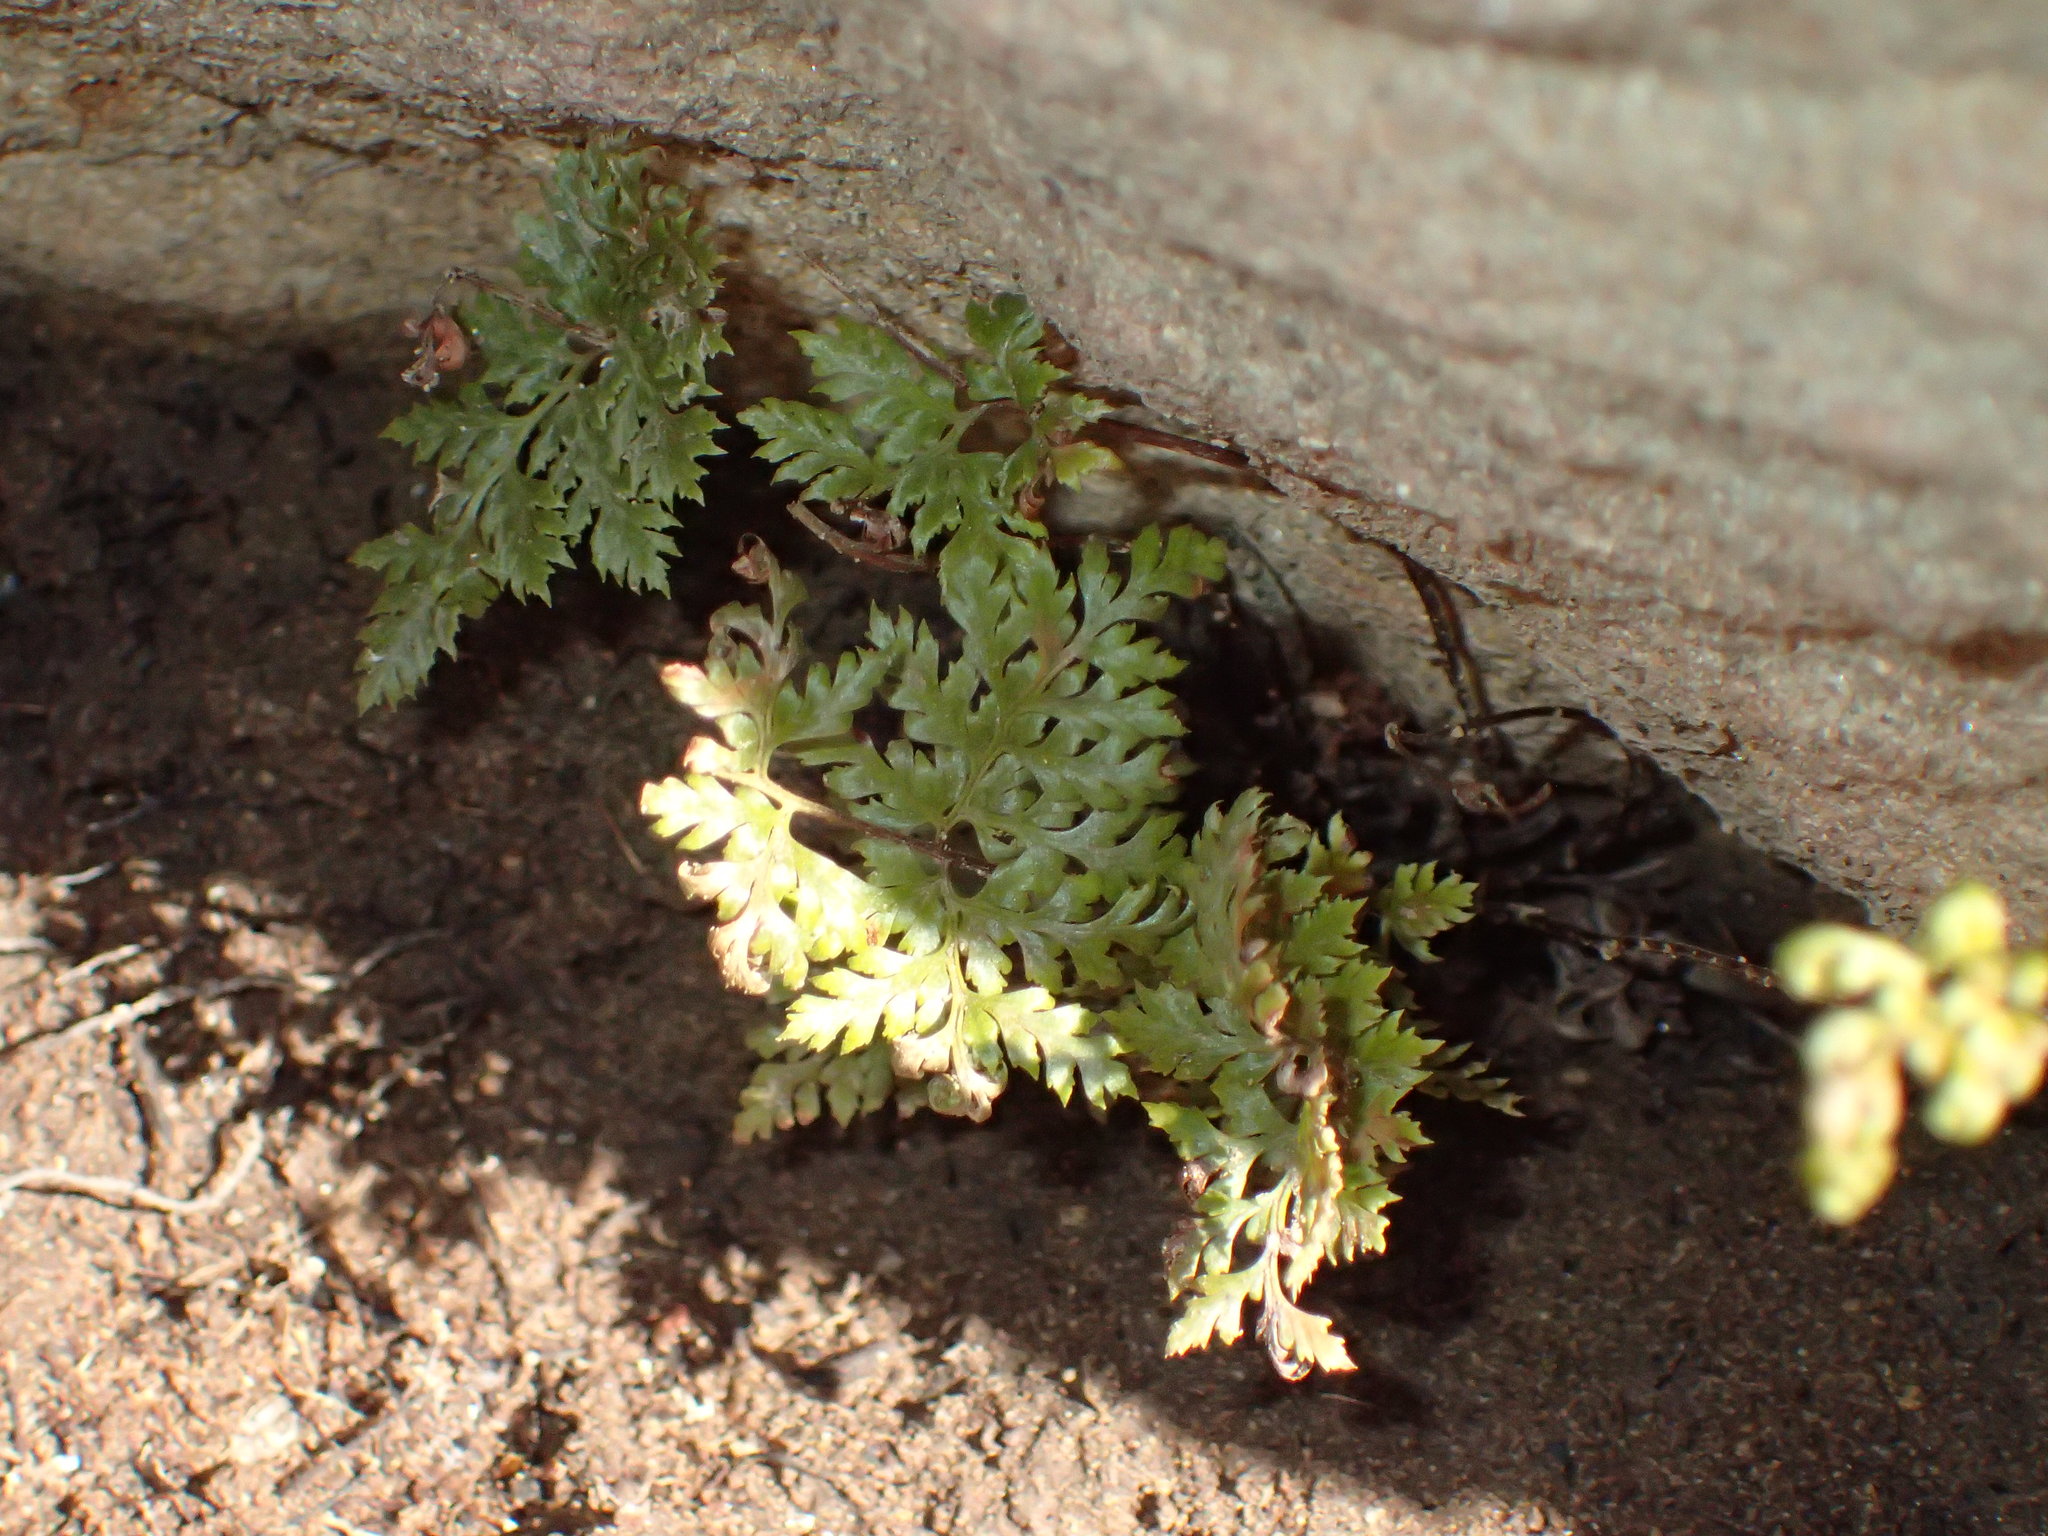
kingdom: Plantae
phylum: Tracheophyta
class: Polypodiopsida
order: Polypodiales
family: Pteridaceae
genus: Aspidotis
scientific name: Aspidotis californica
